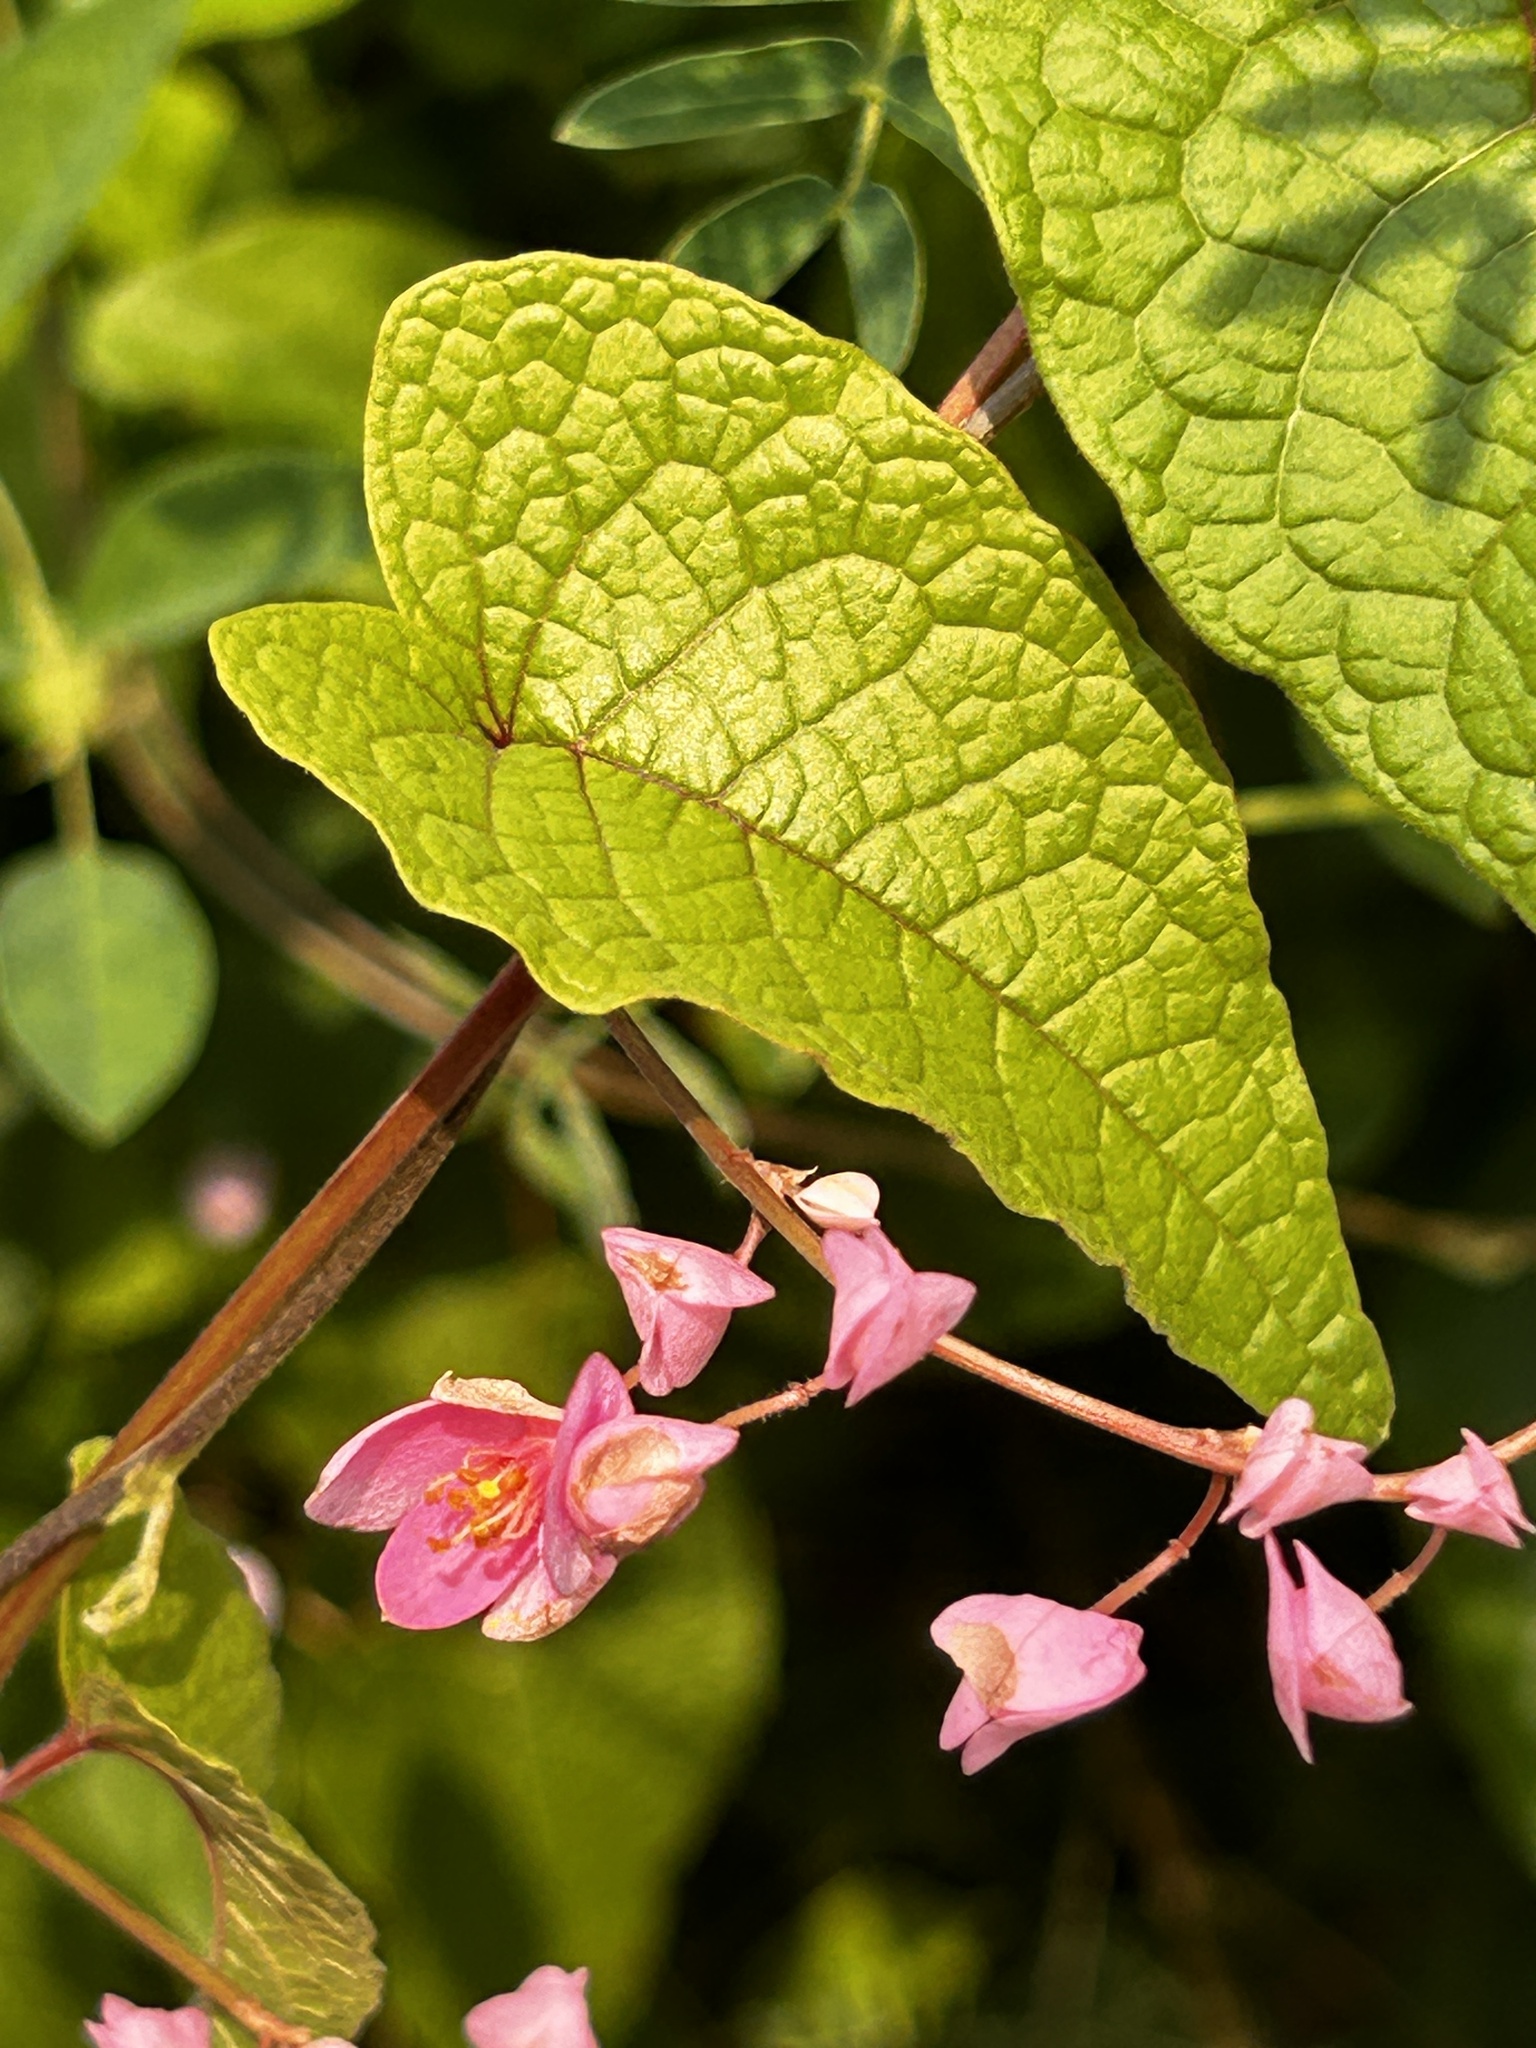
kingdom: Plantae
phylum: Tracheophyta
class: Magnoliopsida
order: Caryophyllales
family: Polygonaceae
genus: Antigonon
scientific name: Antigonon leptopus
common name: Coral vine
